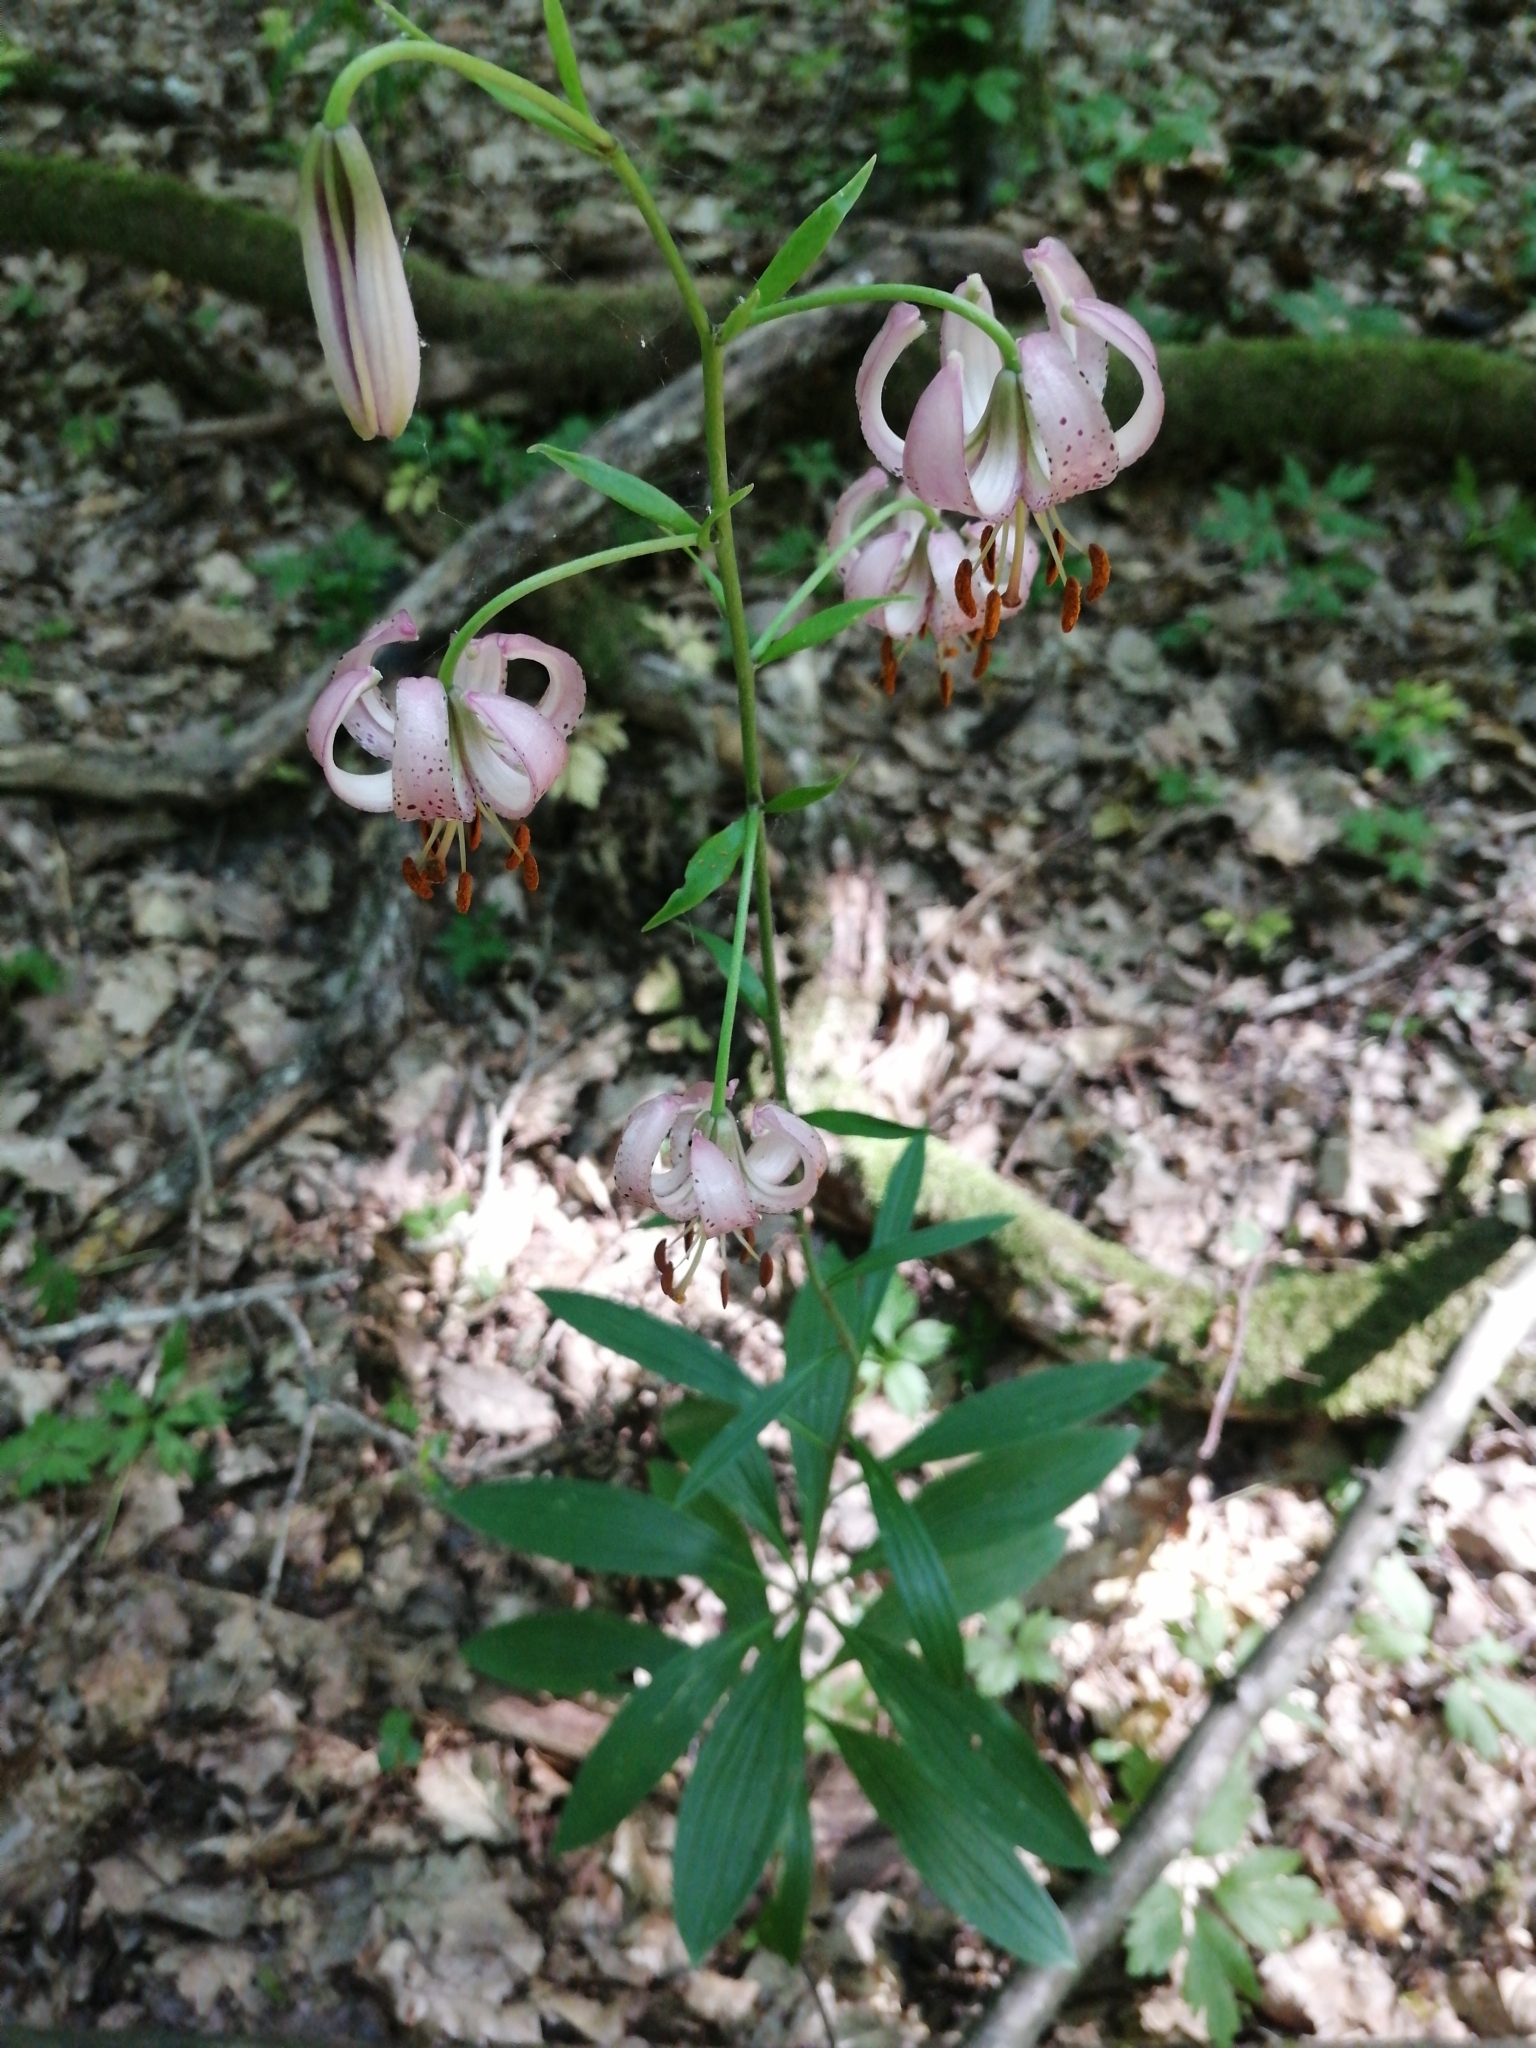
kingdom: Plantae
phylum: Tracheophyta
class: Liliopsida
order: Liliales
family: Liliaceae
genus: Lilium
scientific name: Lilium martagon
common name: Martagon lily
